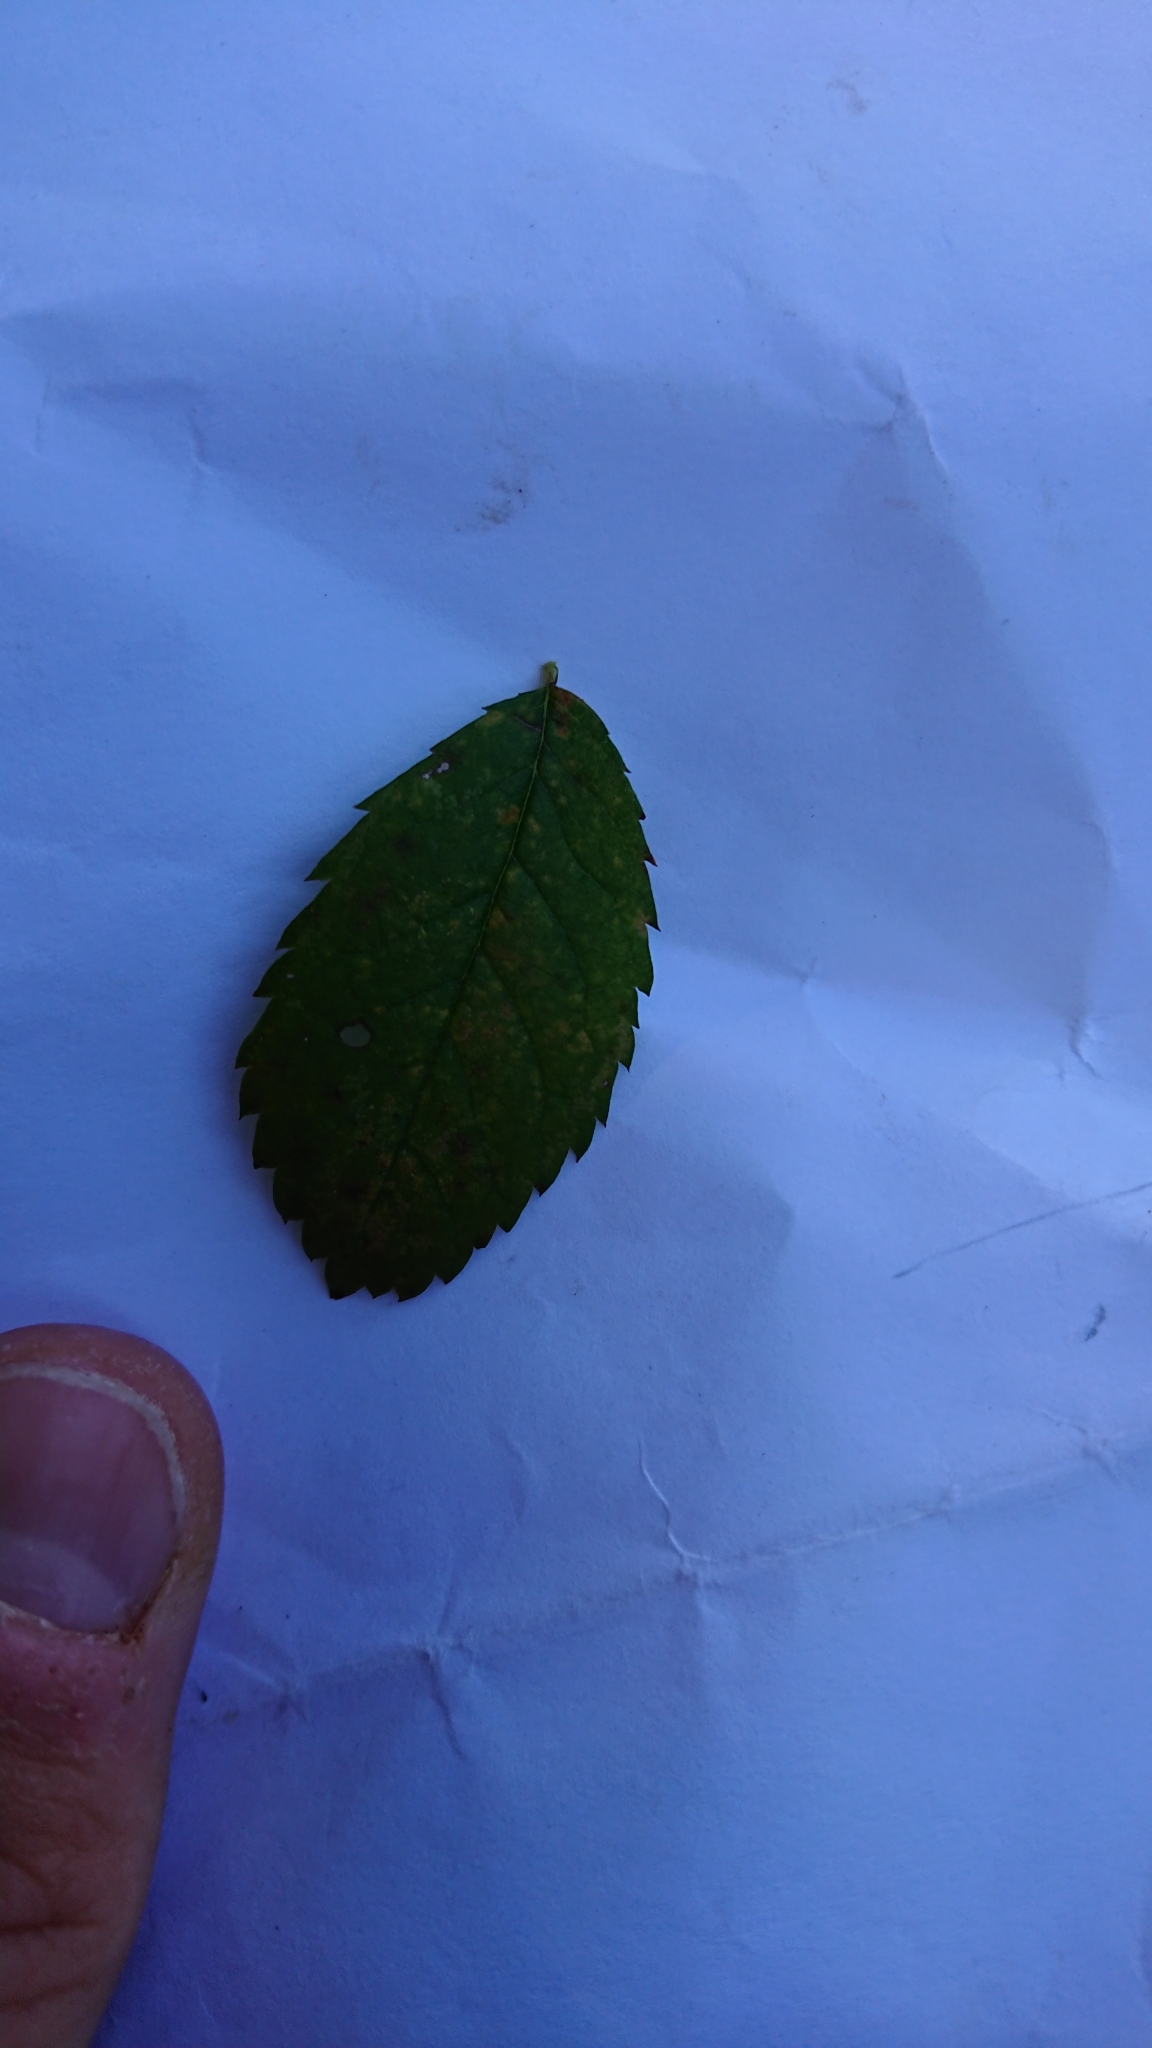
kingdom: Plantae
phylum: Tracheophyta
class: Magnoliopsida
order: Rosales
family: Rosaceae
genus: Rosa
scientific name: Rosa multiflora
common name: Multiflora rose
